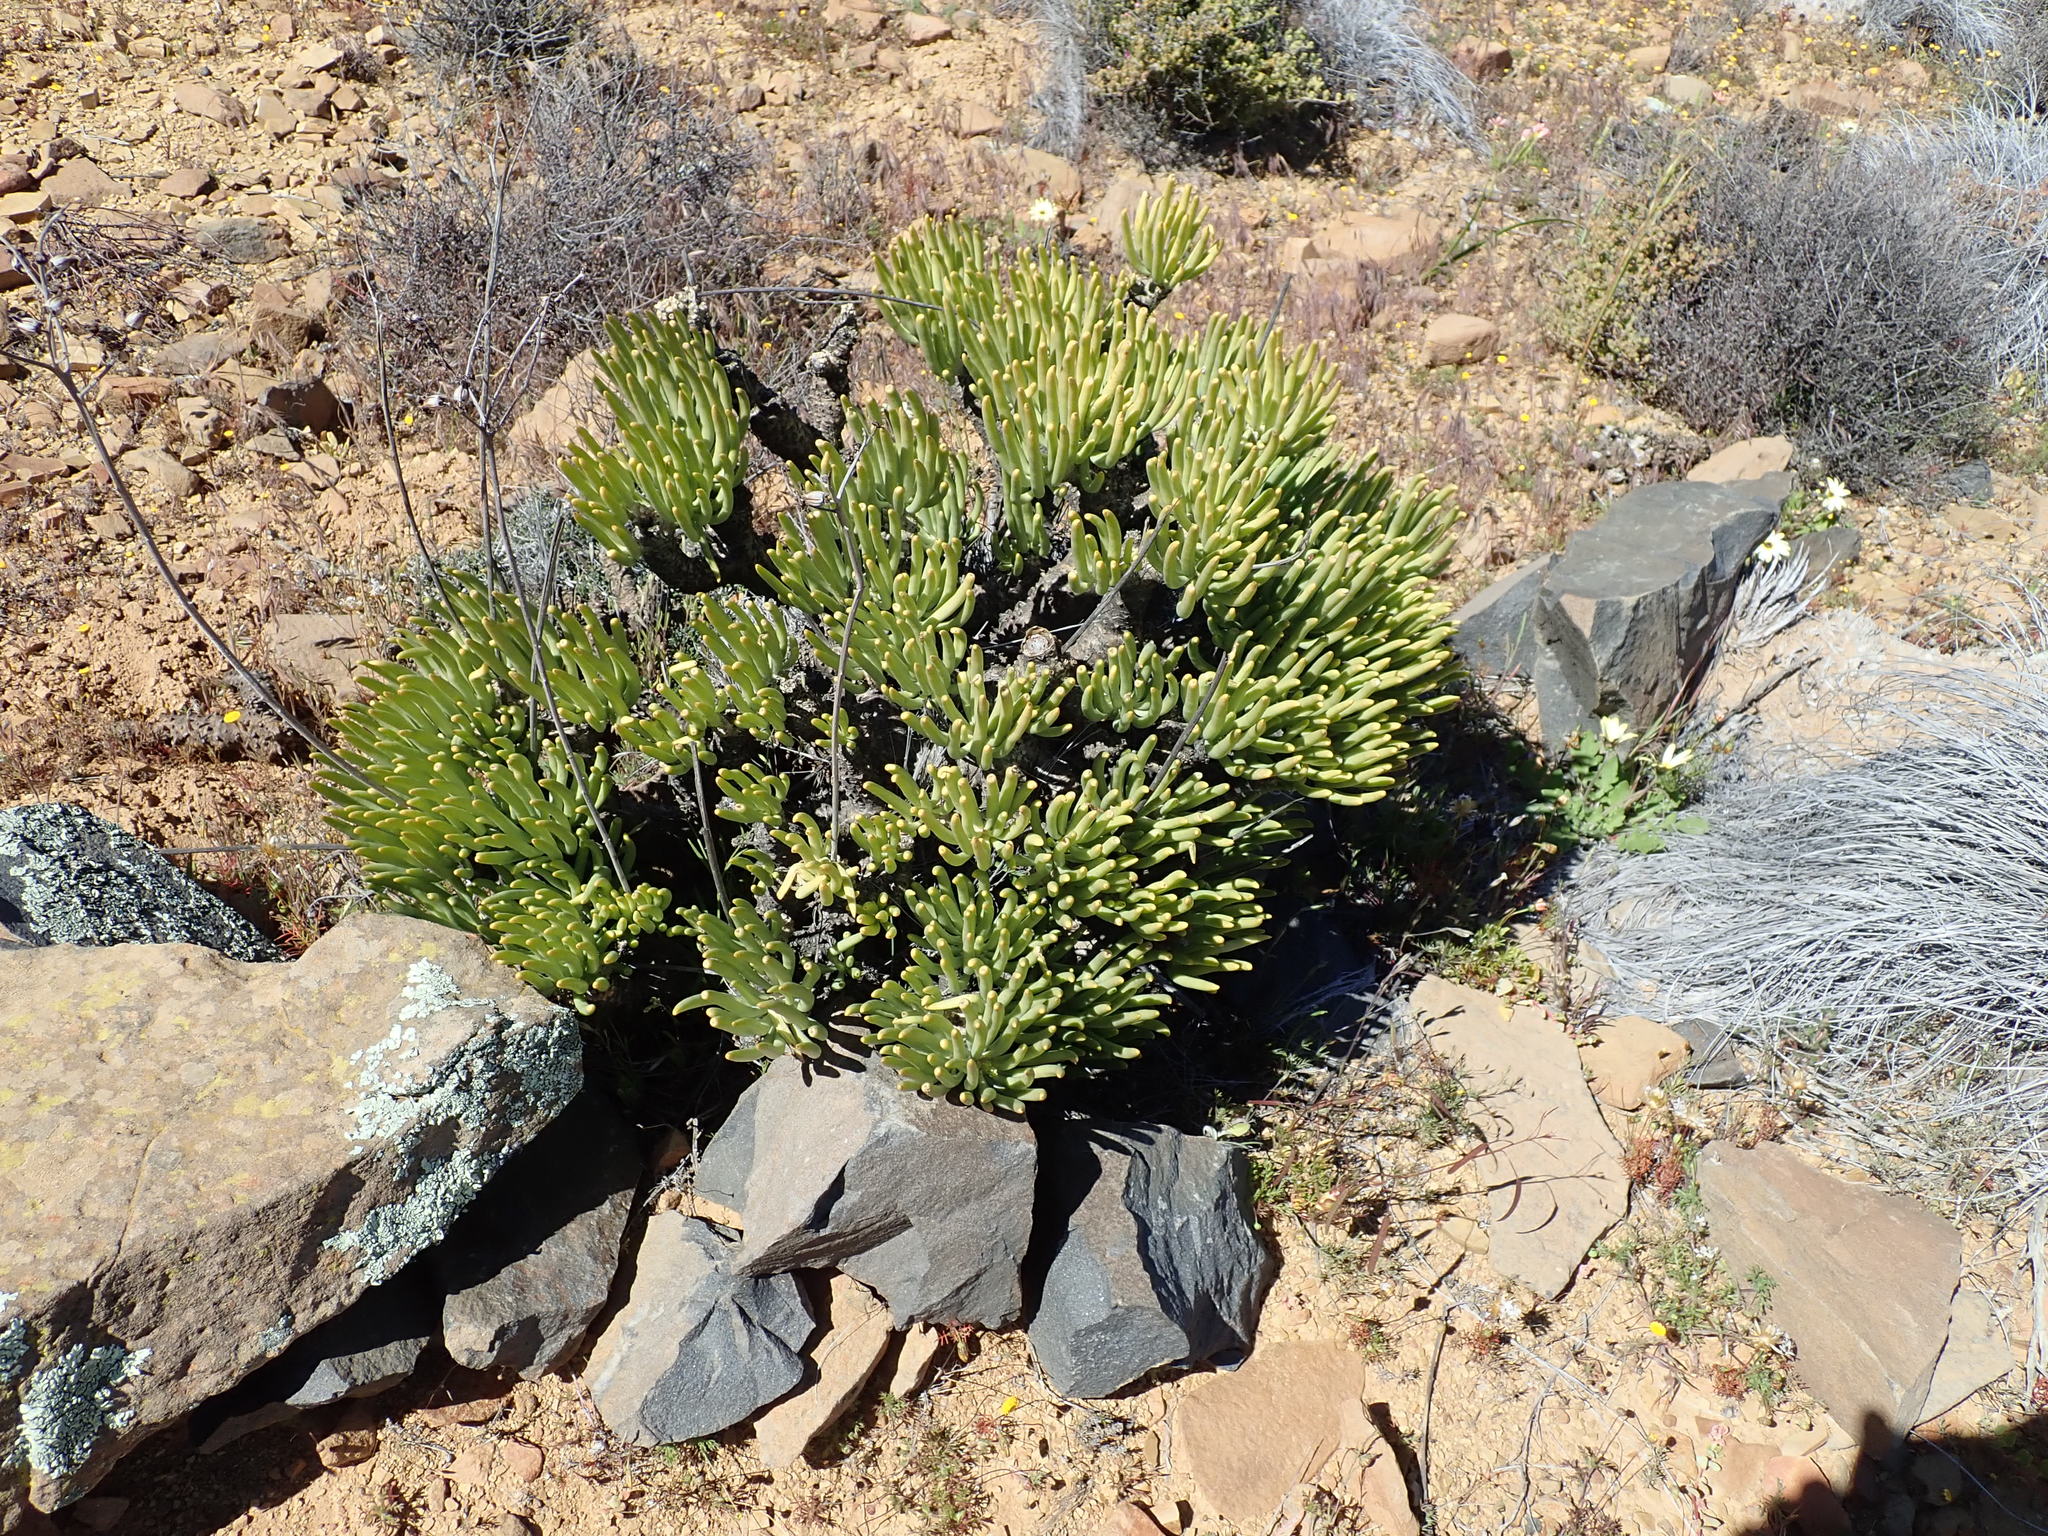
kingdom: Plantae
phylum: Tracheophyta
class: Magnoliopsida
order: Saxifragales
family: Crassulaceae
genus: Tylecodon
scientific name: Tylecodon wallichii
